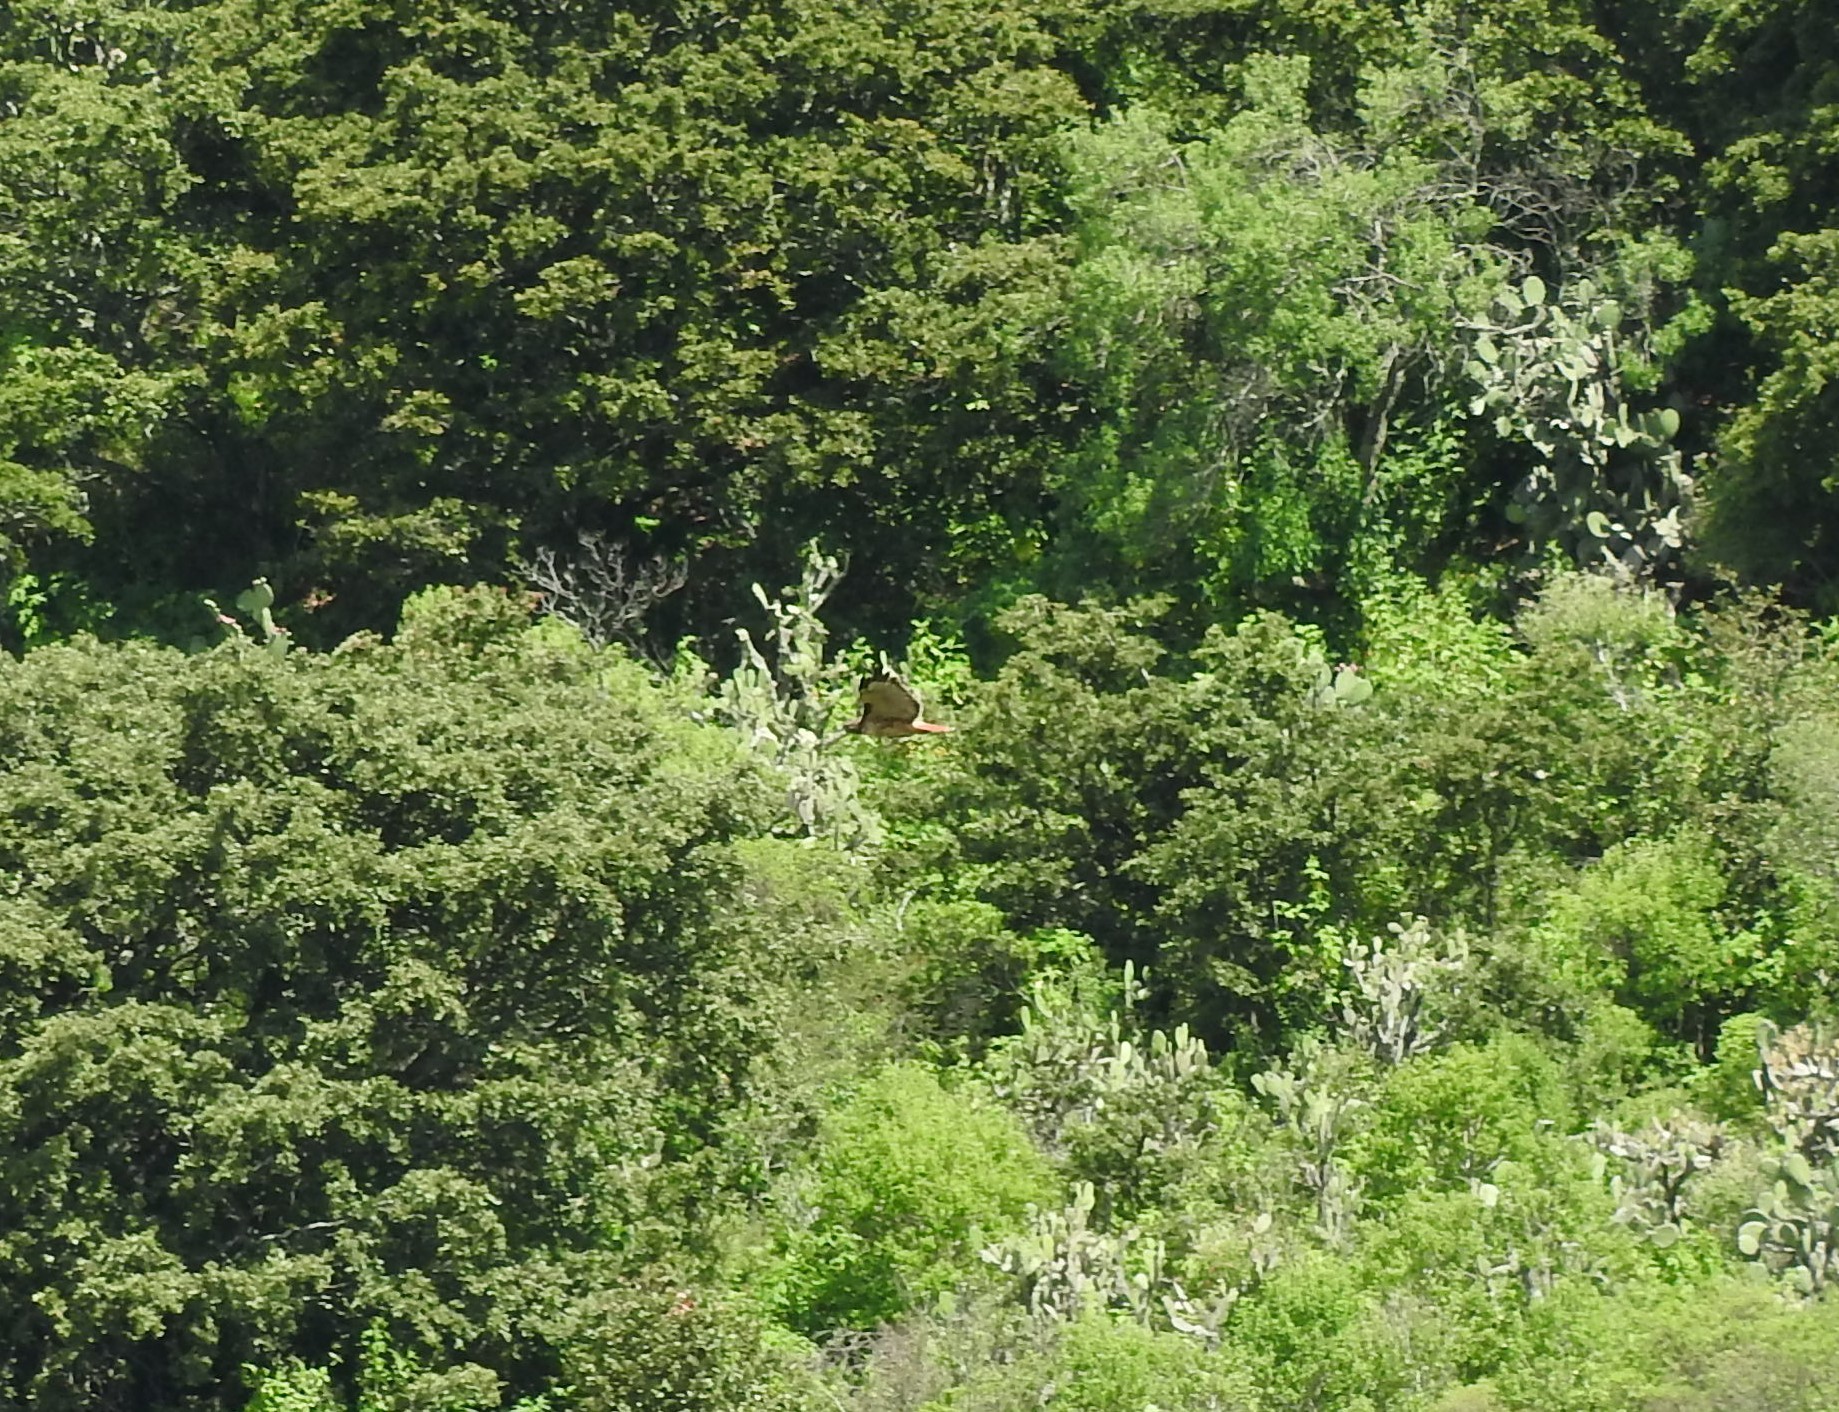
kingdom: Animalia
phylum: Chordata
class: Aves
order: Accipitriformes
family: Accipitridae
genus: Buteo
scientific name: Buteo jamaicensis
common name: Red-tailed hawk
